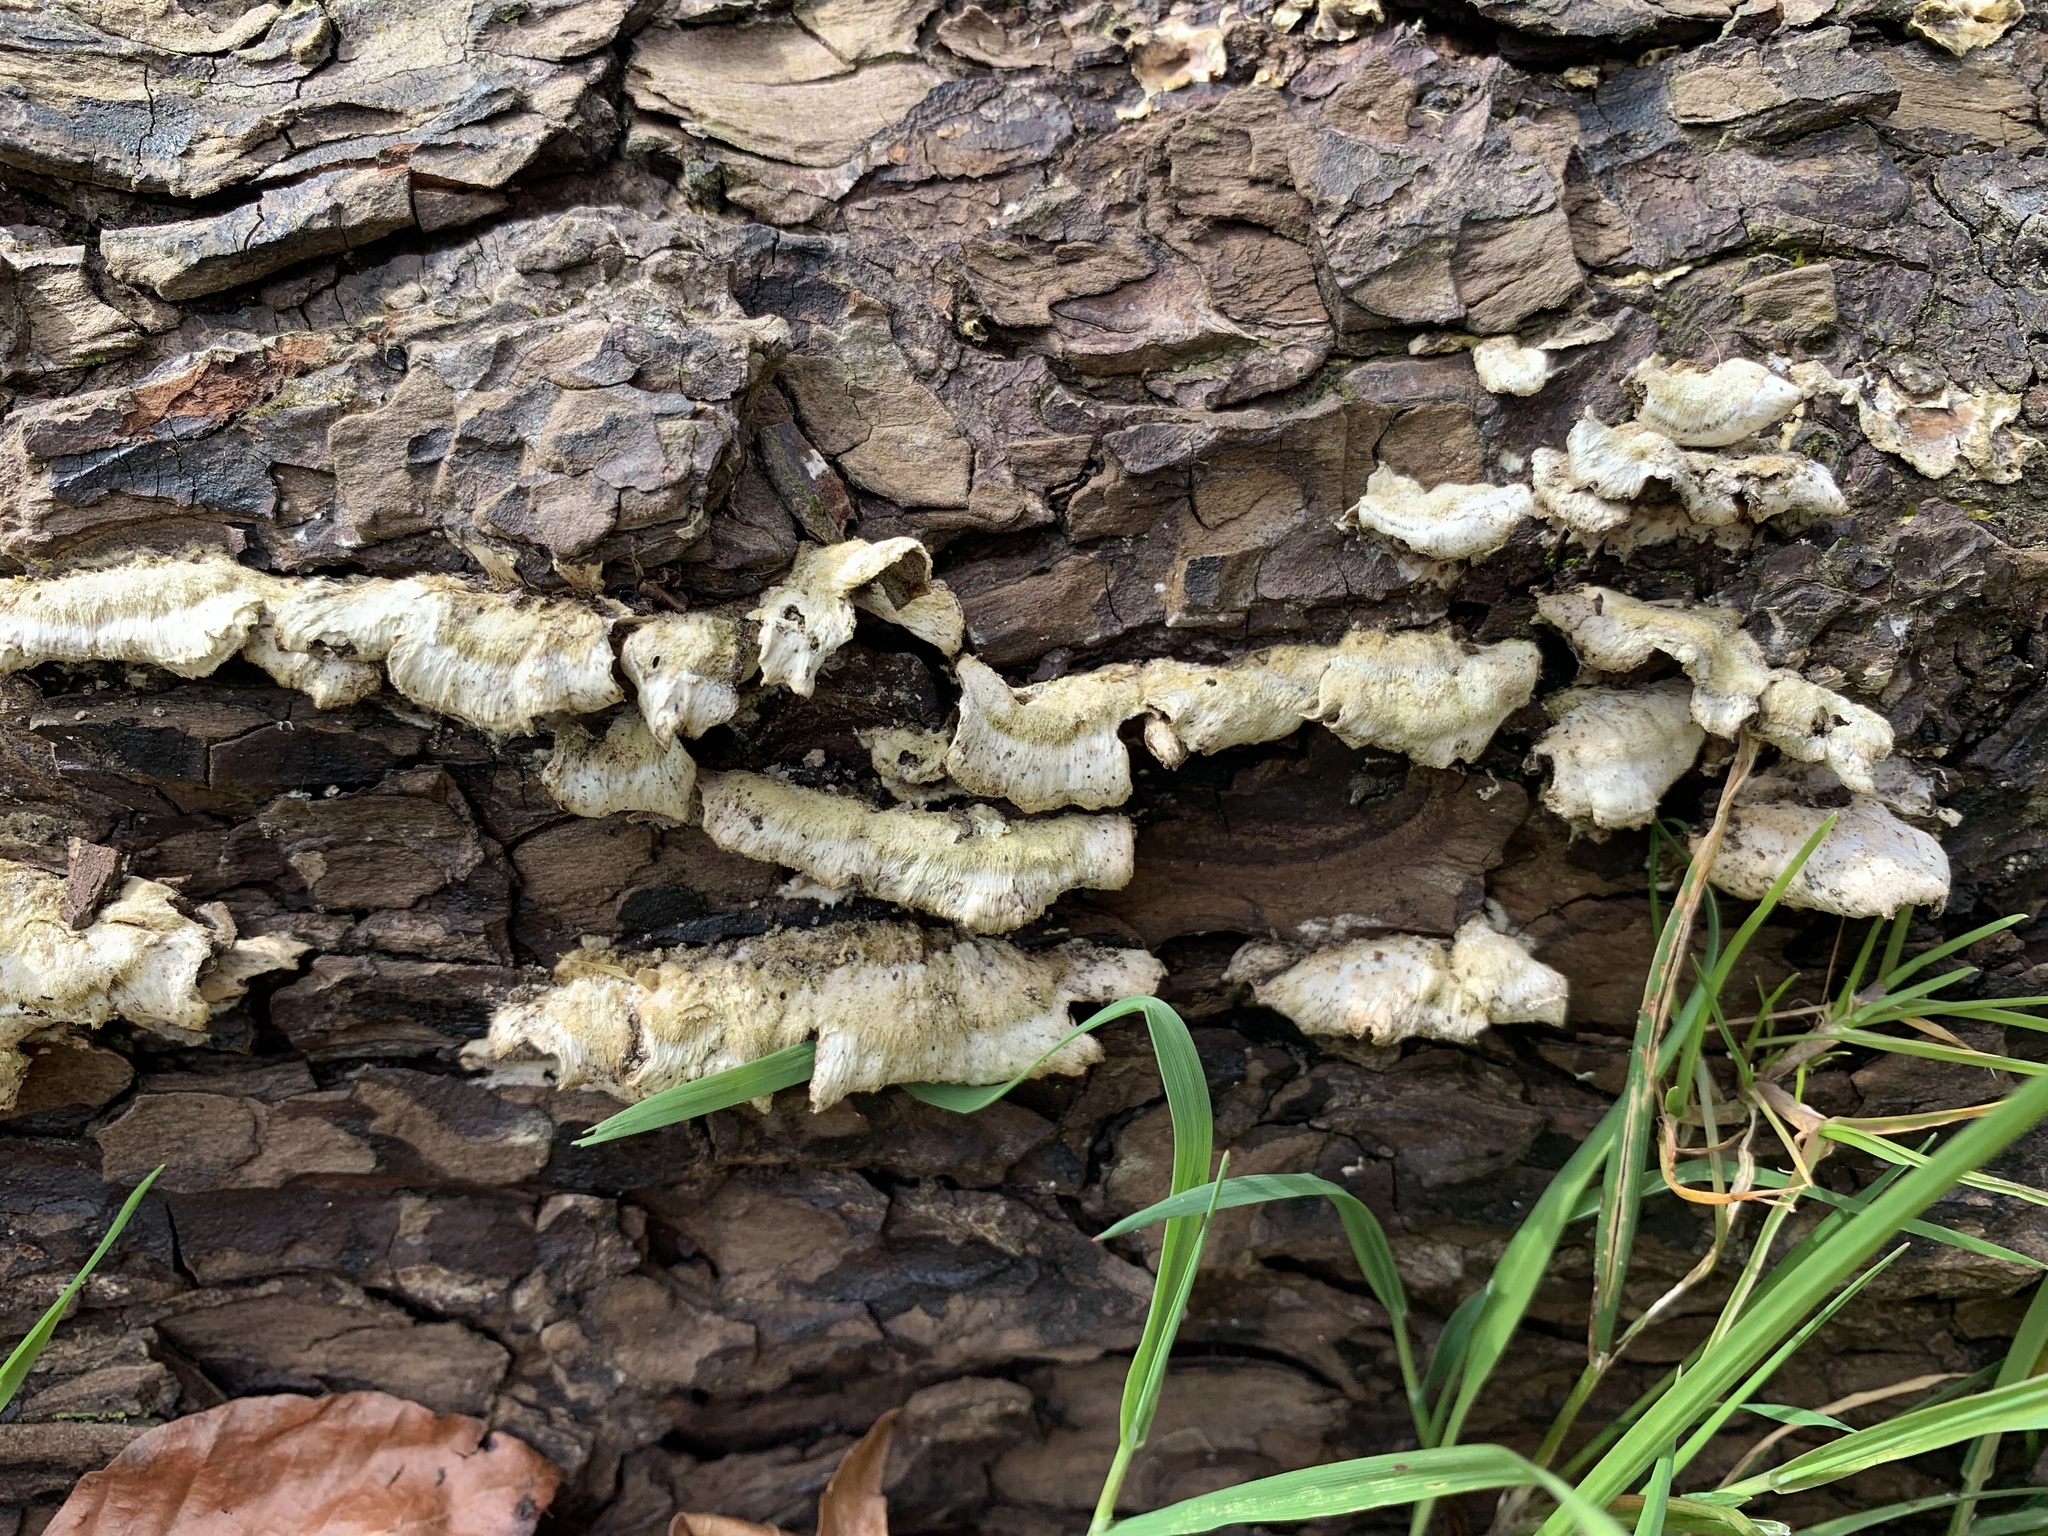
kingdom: Fungi
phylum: Basidiomycota
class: Agaricomycetes
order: Hymenochaetales
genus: Trichaptum
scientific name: Trichaptum abietinum
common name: Purplepore bracket
